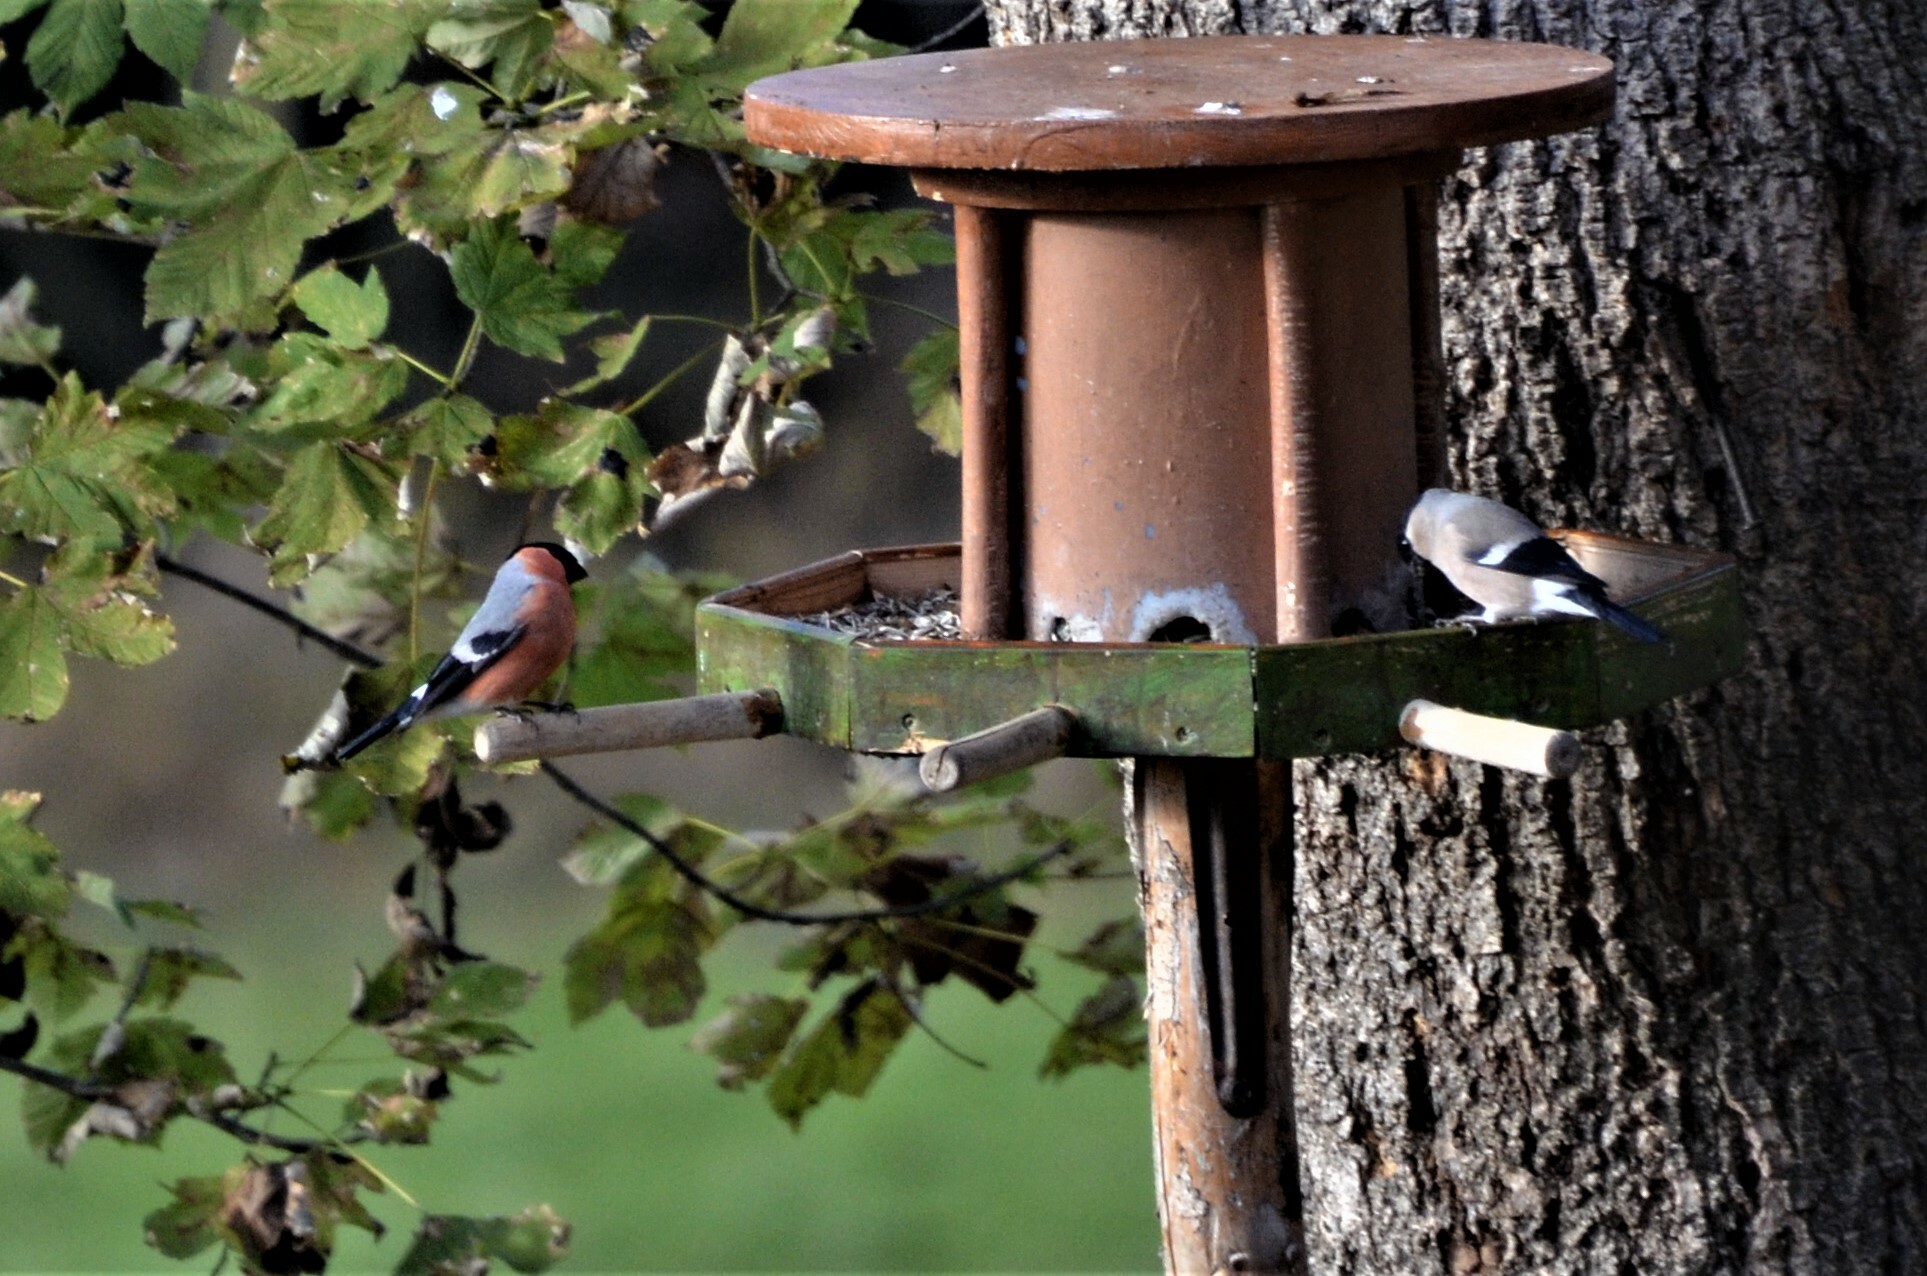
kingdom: Animalia
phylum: Chordata
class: Aves
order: Passeriformes
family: Fringillidae
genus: Pyrrhula
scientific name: Pyrrhula pyrrhula
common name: Eurasian bullfinch
